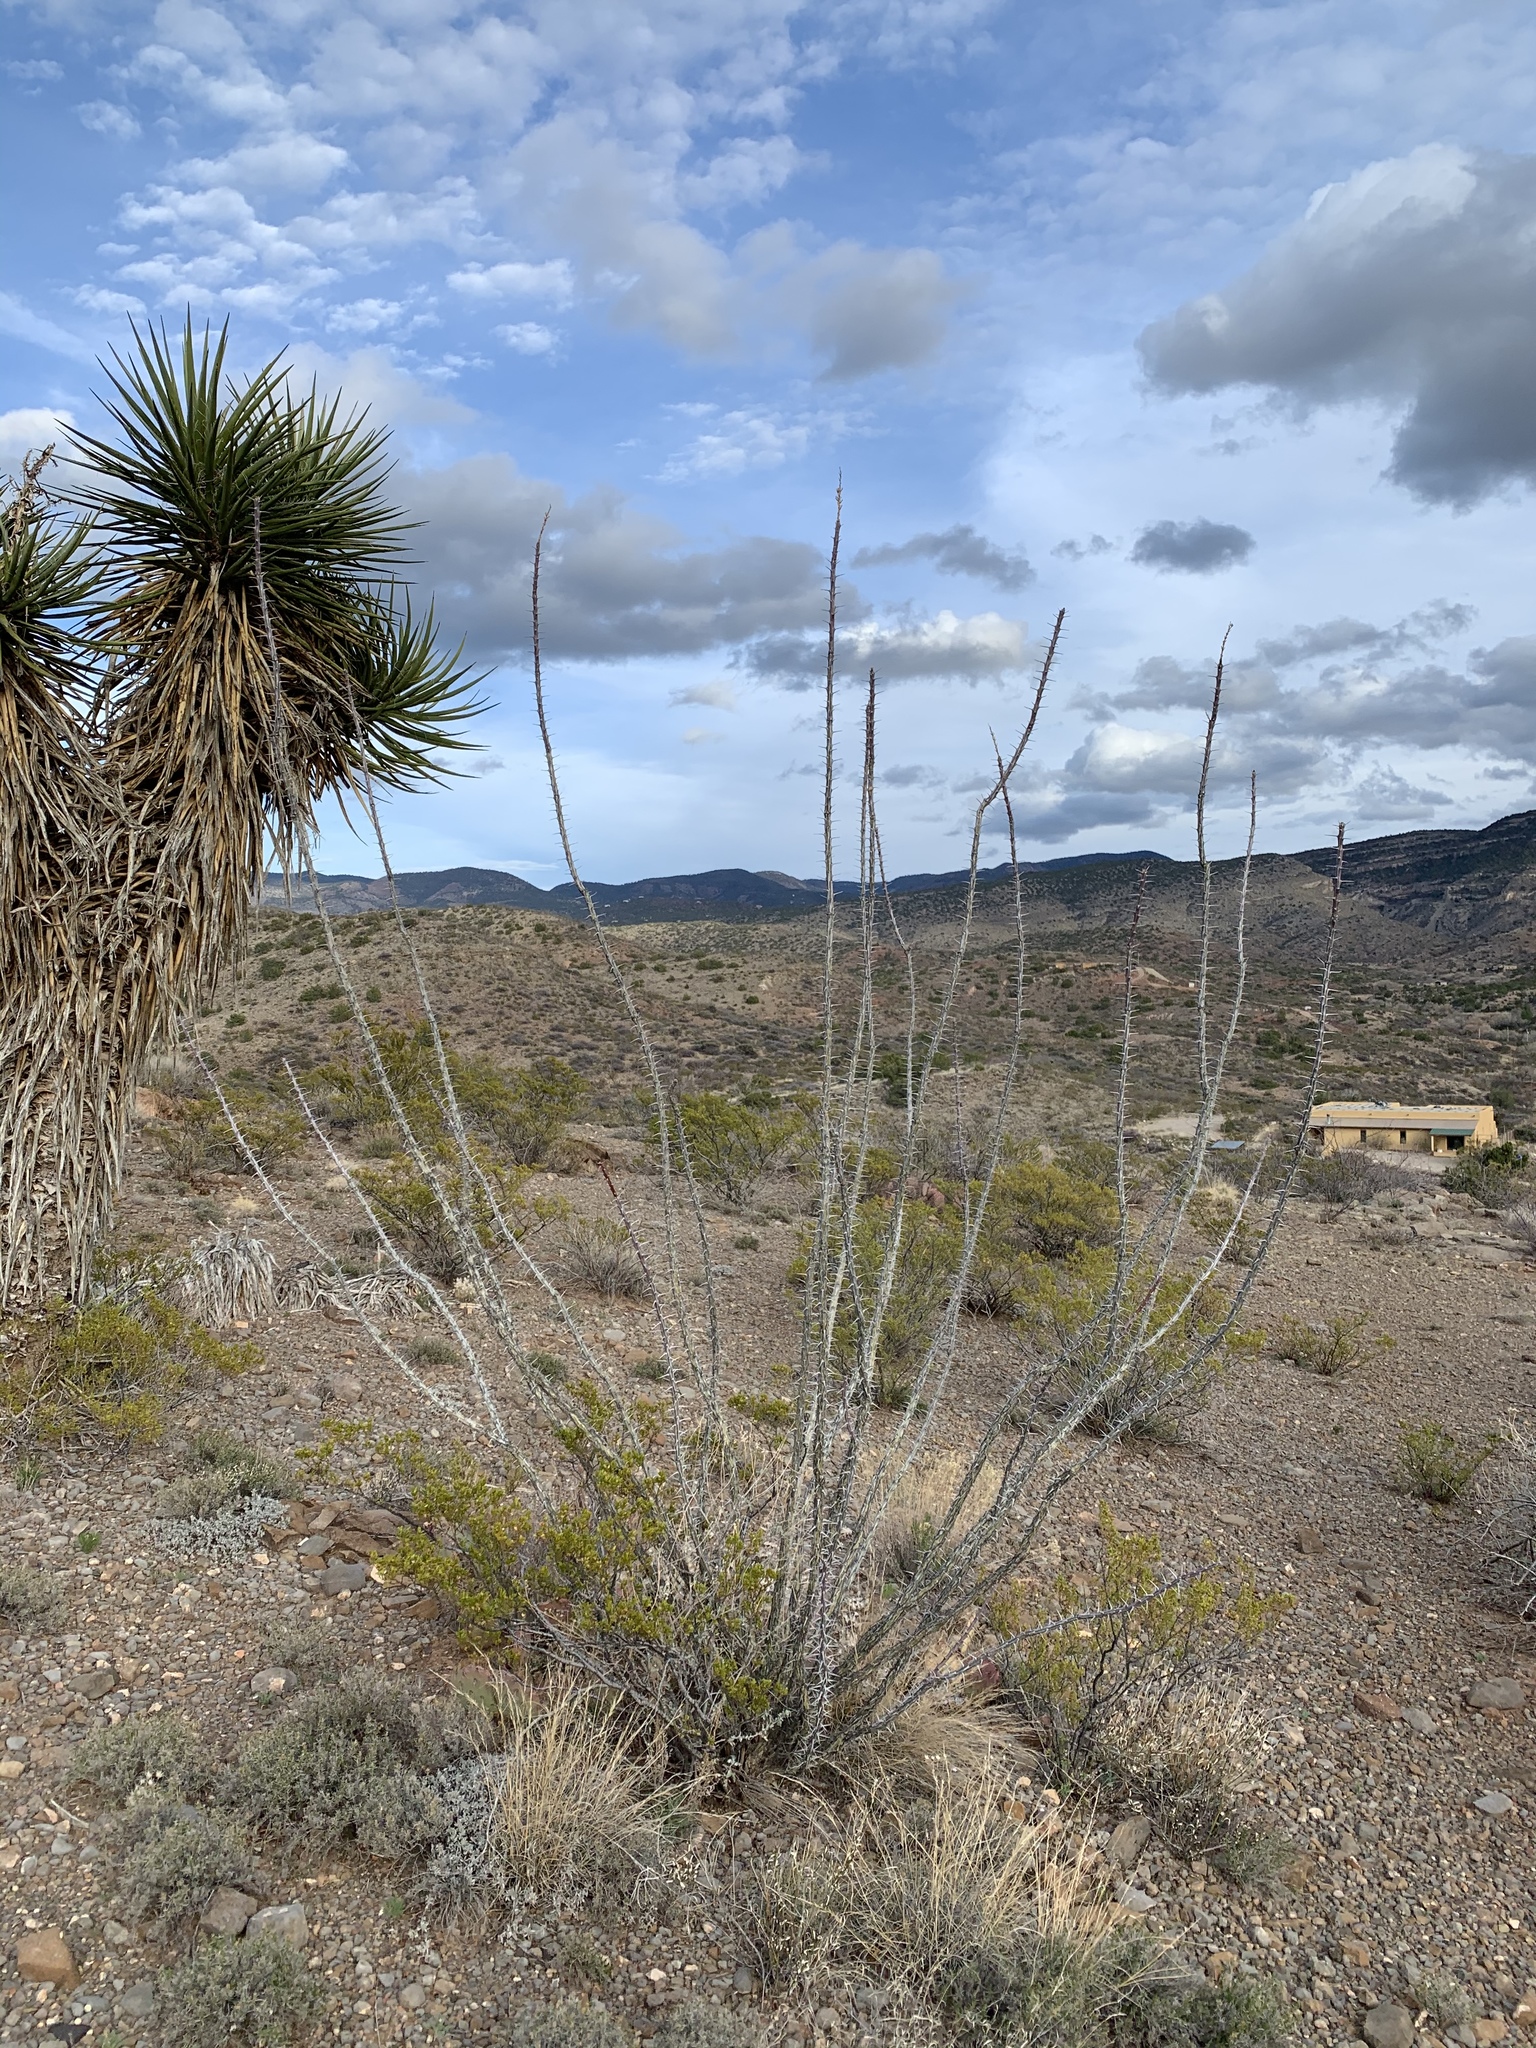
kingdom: Plantae
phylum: Tracheophyta
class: Magnoliopsida
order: Ericales
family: Fouquieriaceae
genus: Fouquieria
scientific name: Fouquieria splendens
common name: Vine-cactus
